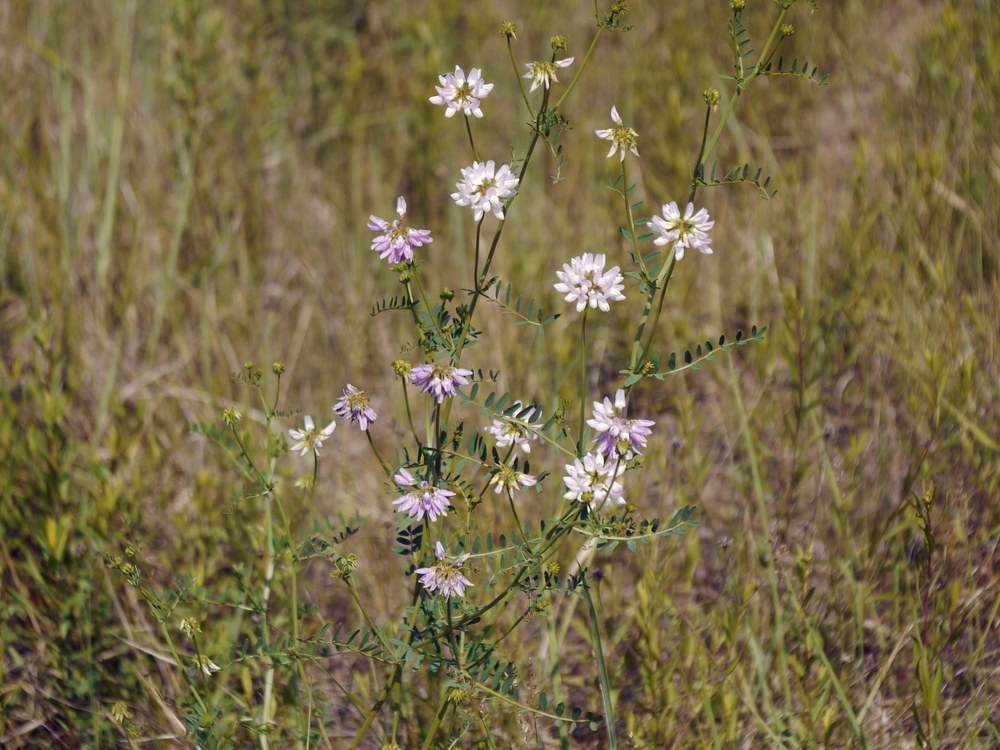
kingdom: Plantae
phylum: Tracheophyta
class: Magnoliopsida
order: Fabales
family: Fabaceae
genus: Coronilla
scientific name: Coronilla varia
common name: Crownvetch
